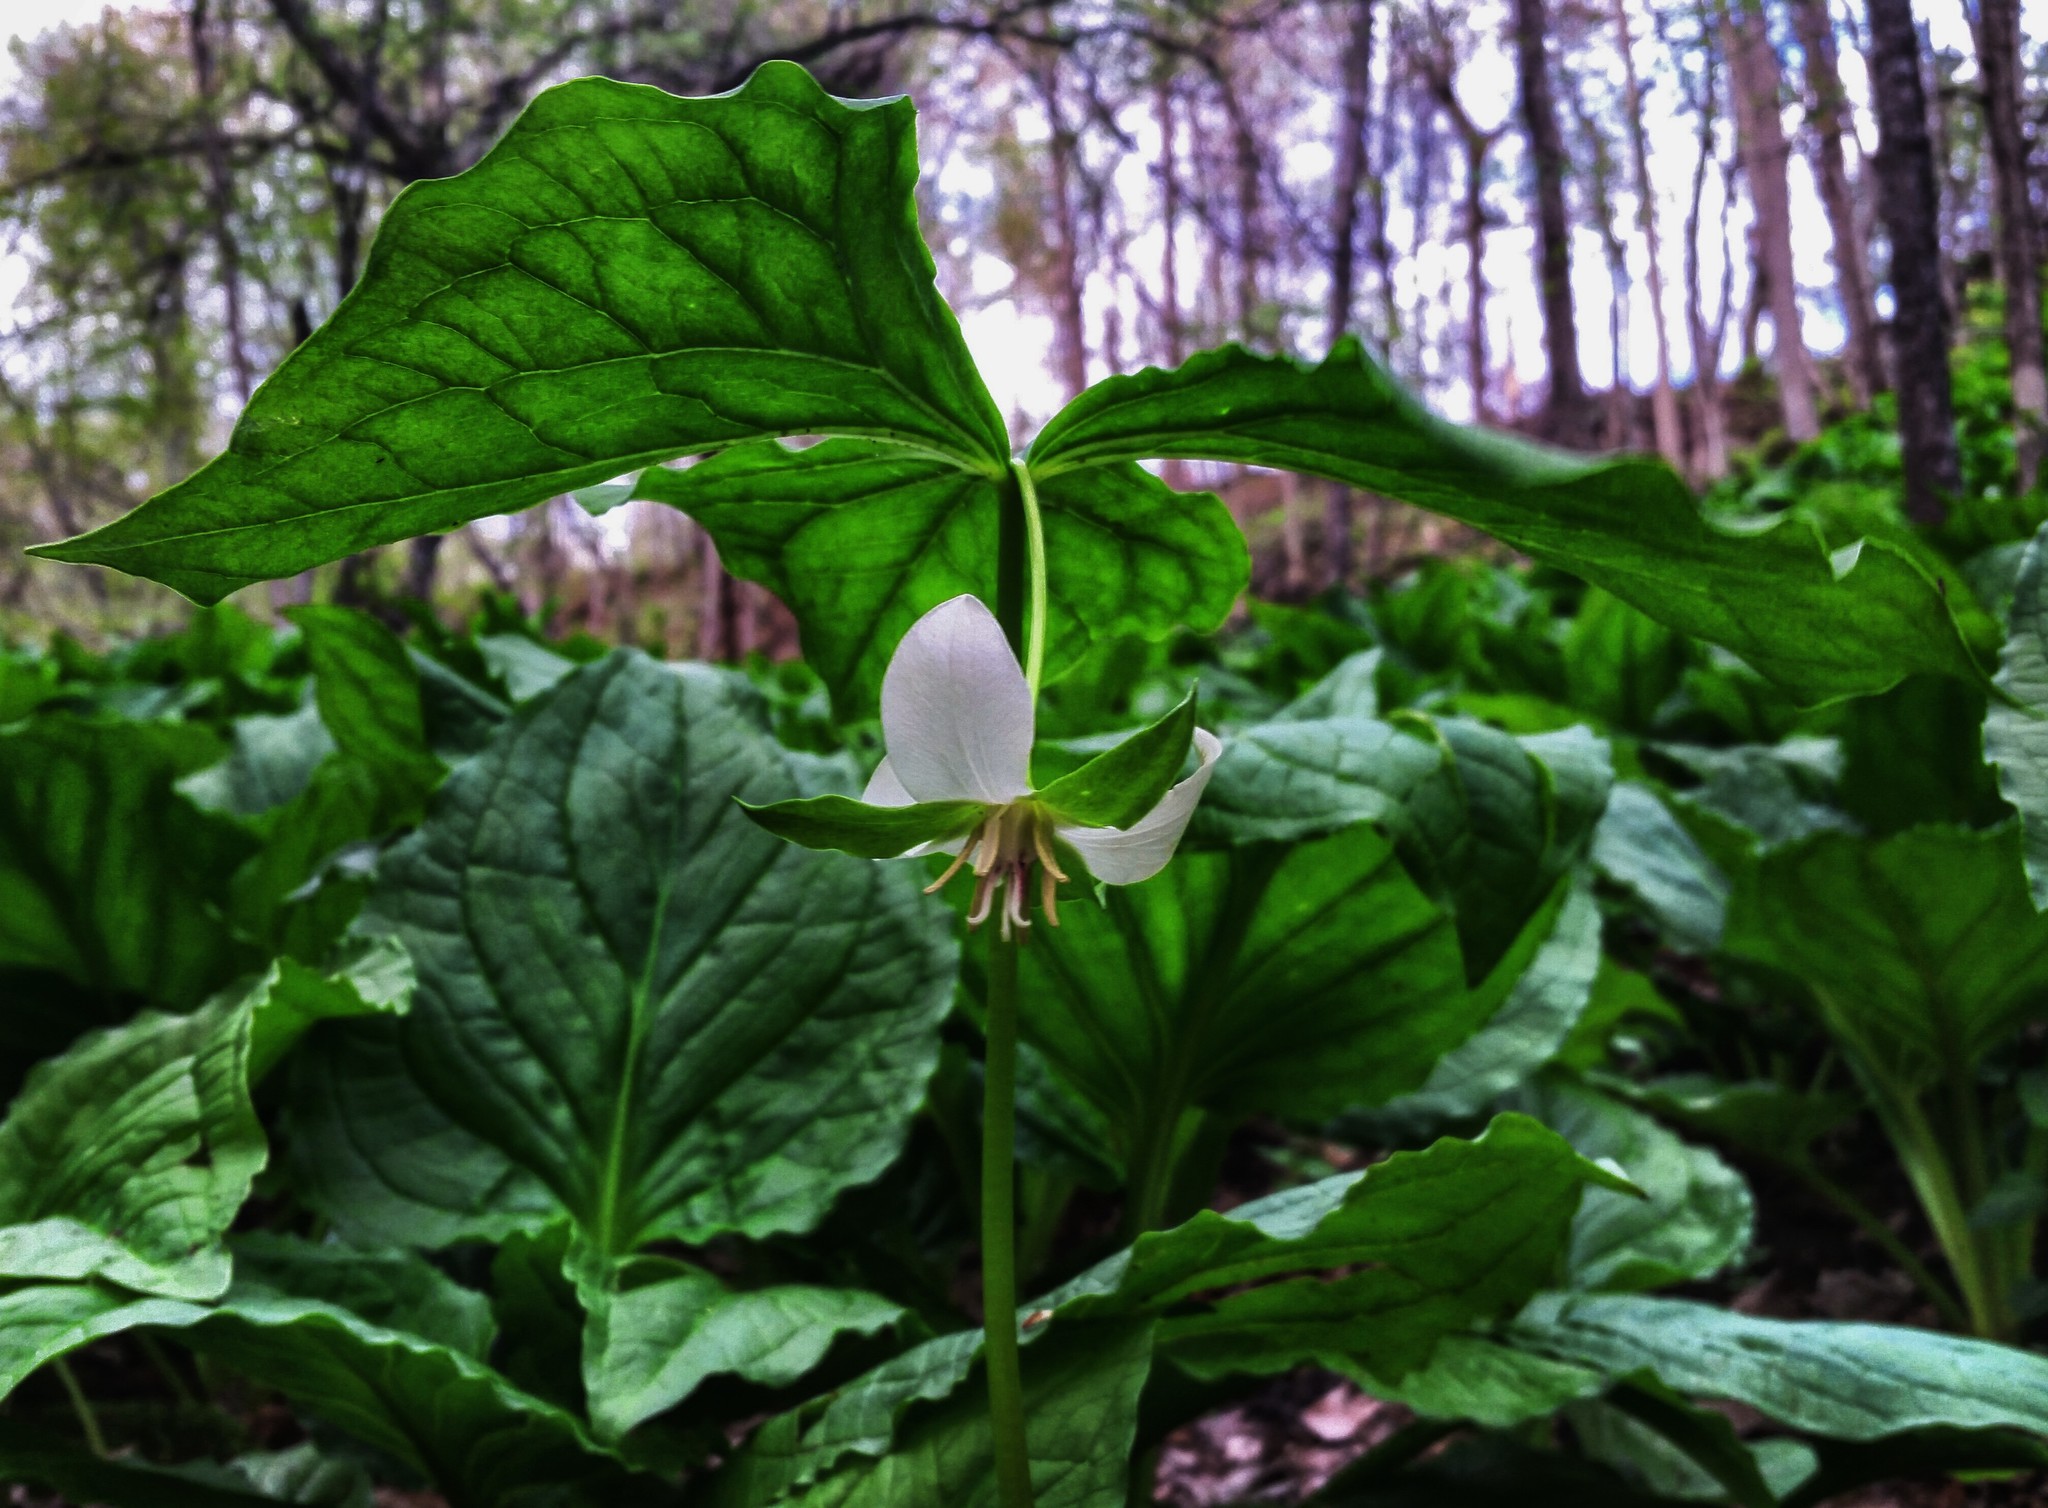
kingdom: Plantae
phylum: Tracheophyta
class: Liliopsida
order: Liliales
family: Melanthiaceae
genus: Trillium
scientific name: Trillium cernuum
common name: Nodding trillium
